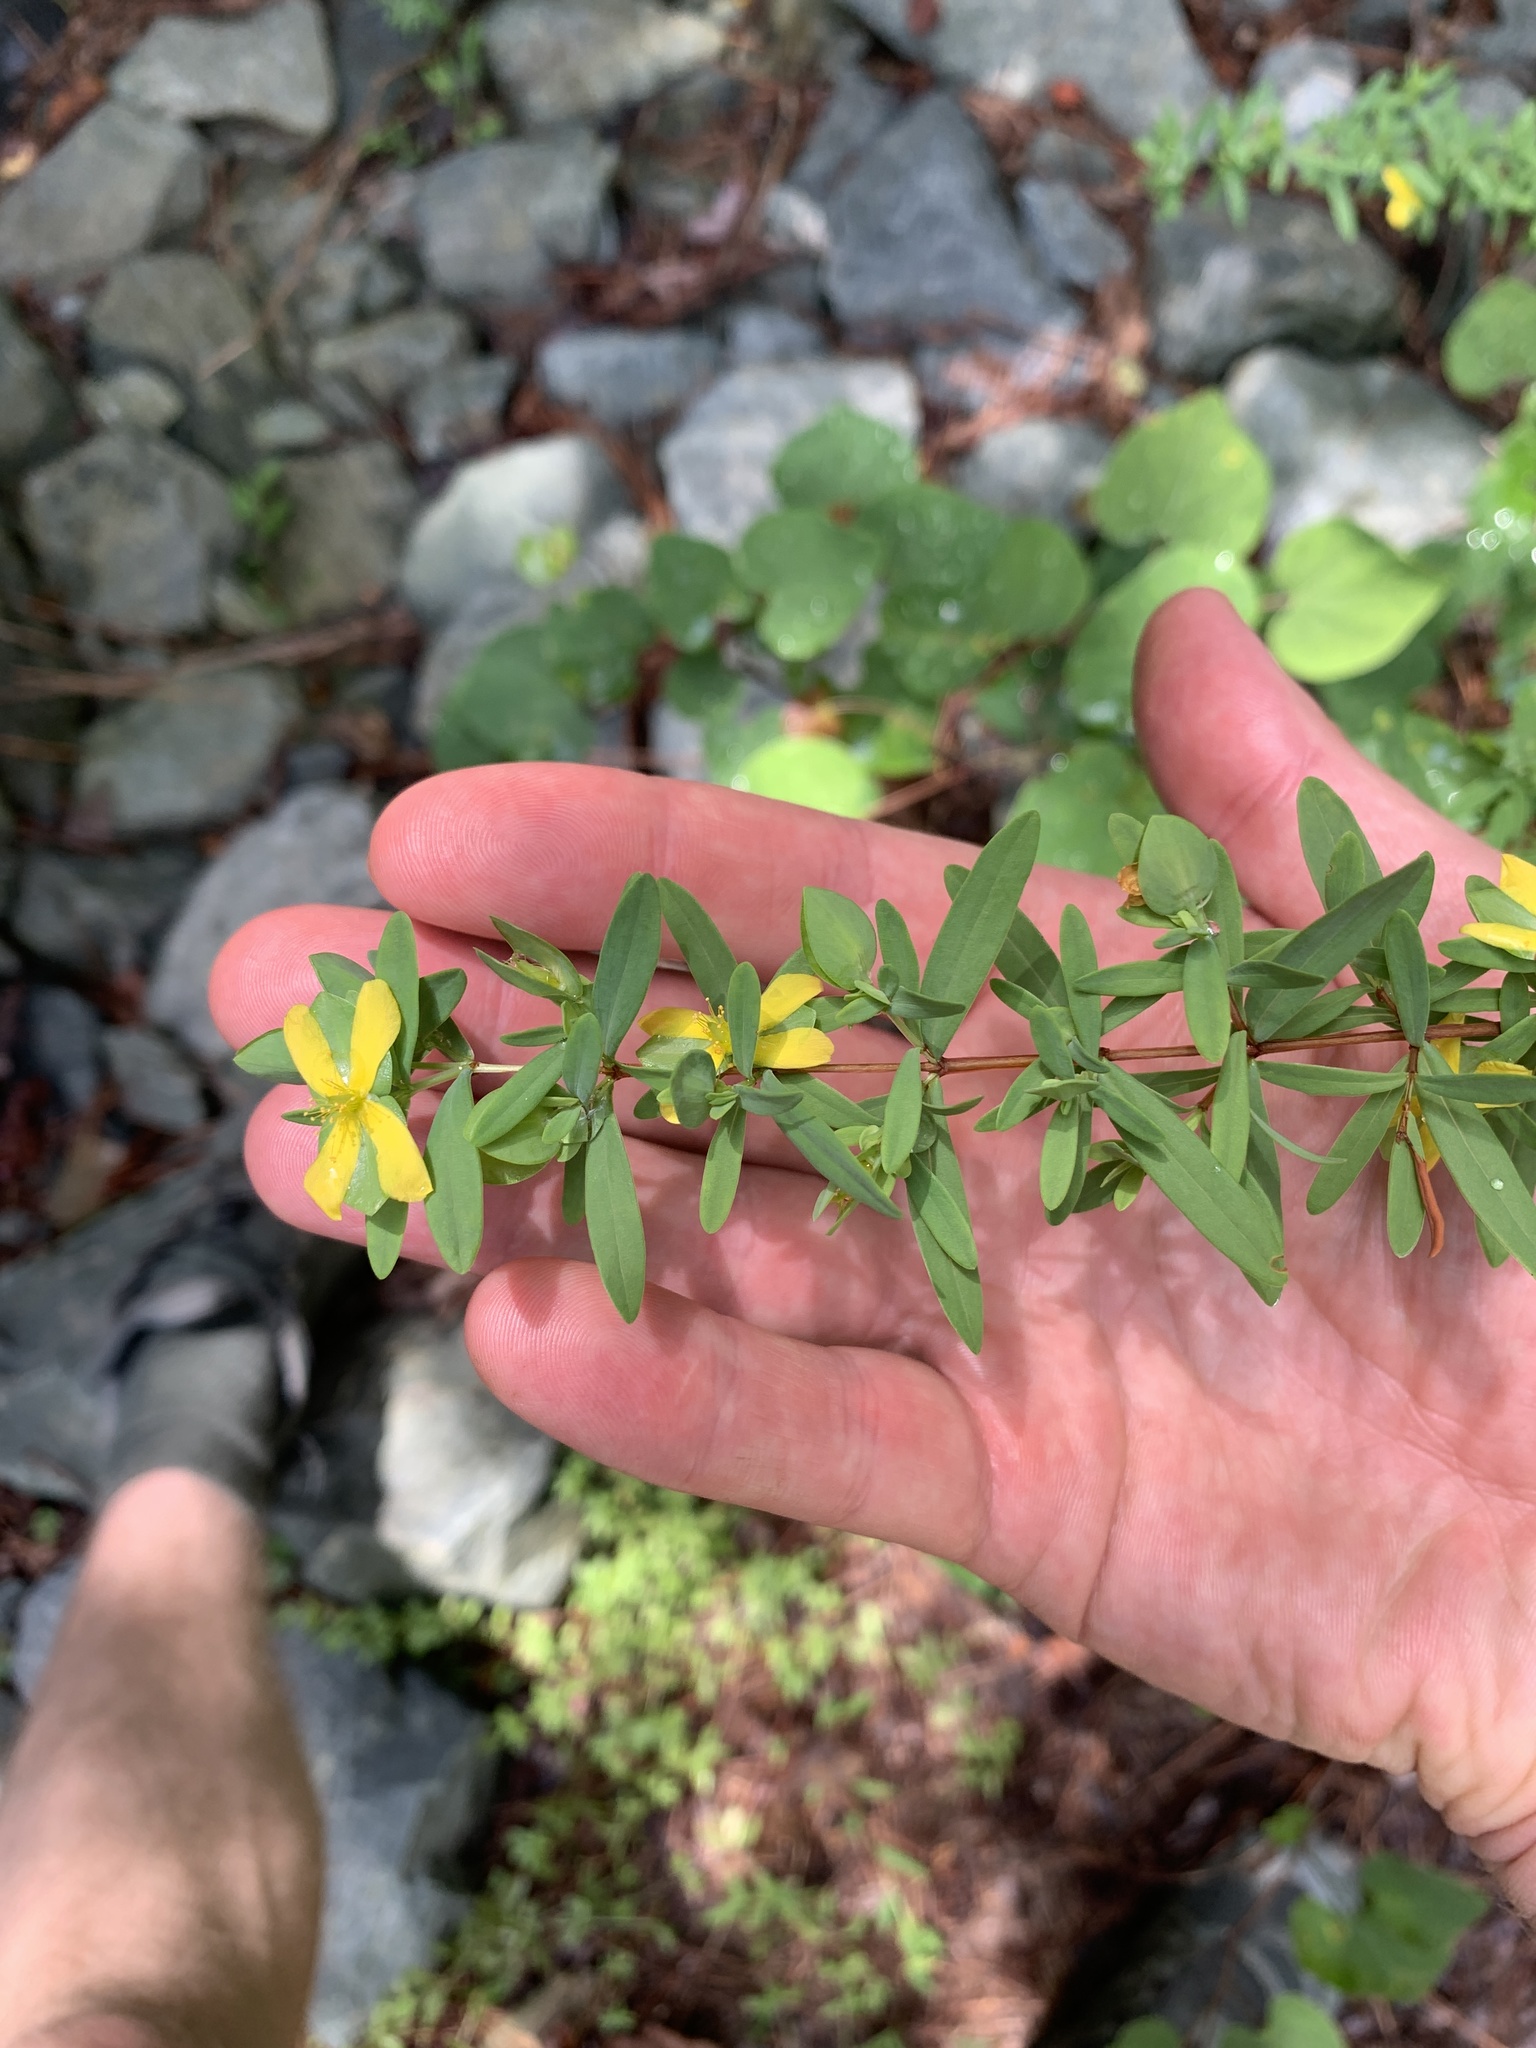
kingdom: Plantae
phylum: Tracheophyta
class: Magnoliopsida
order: Malpighiales
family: Hypericaceae
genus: Hypericum
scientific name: Hypericum hypericoides
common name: St. andrew's cross
